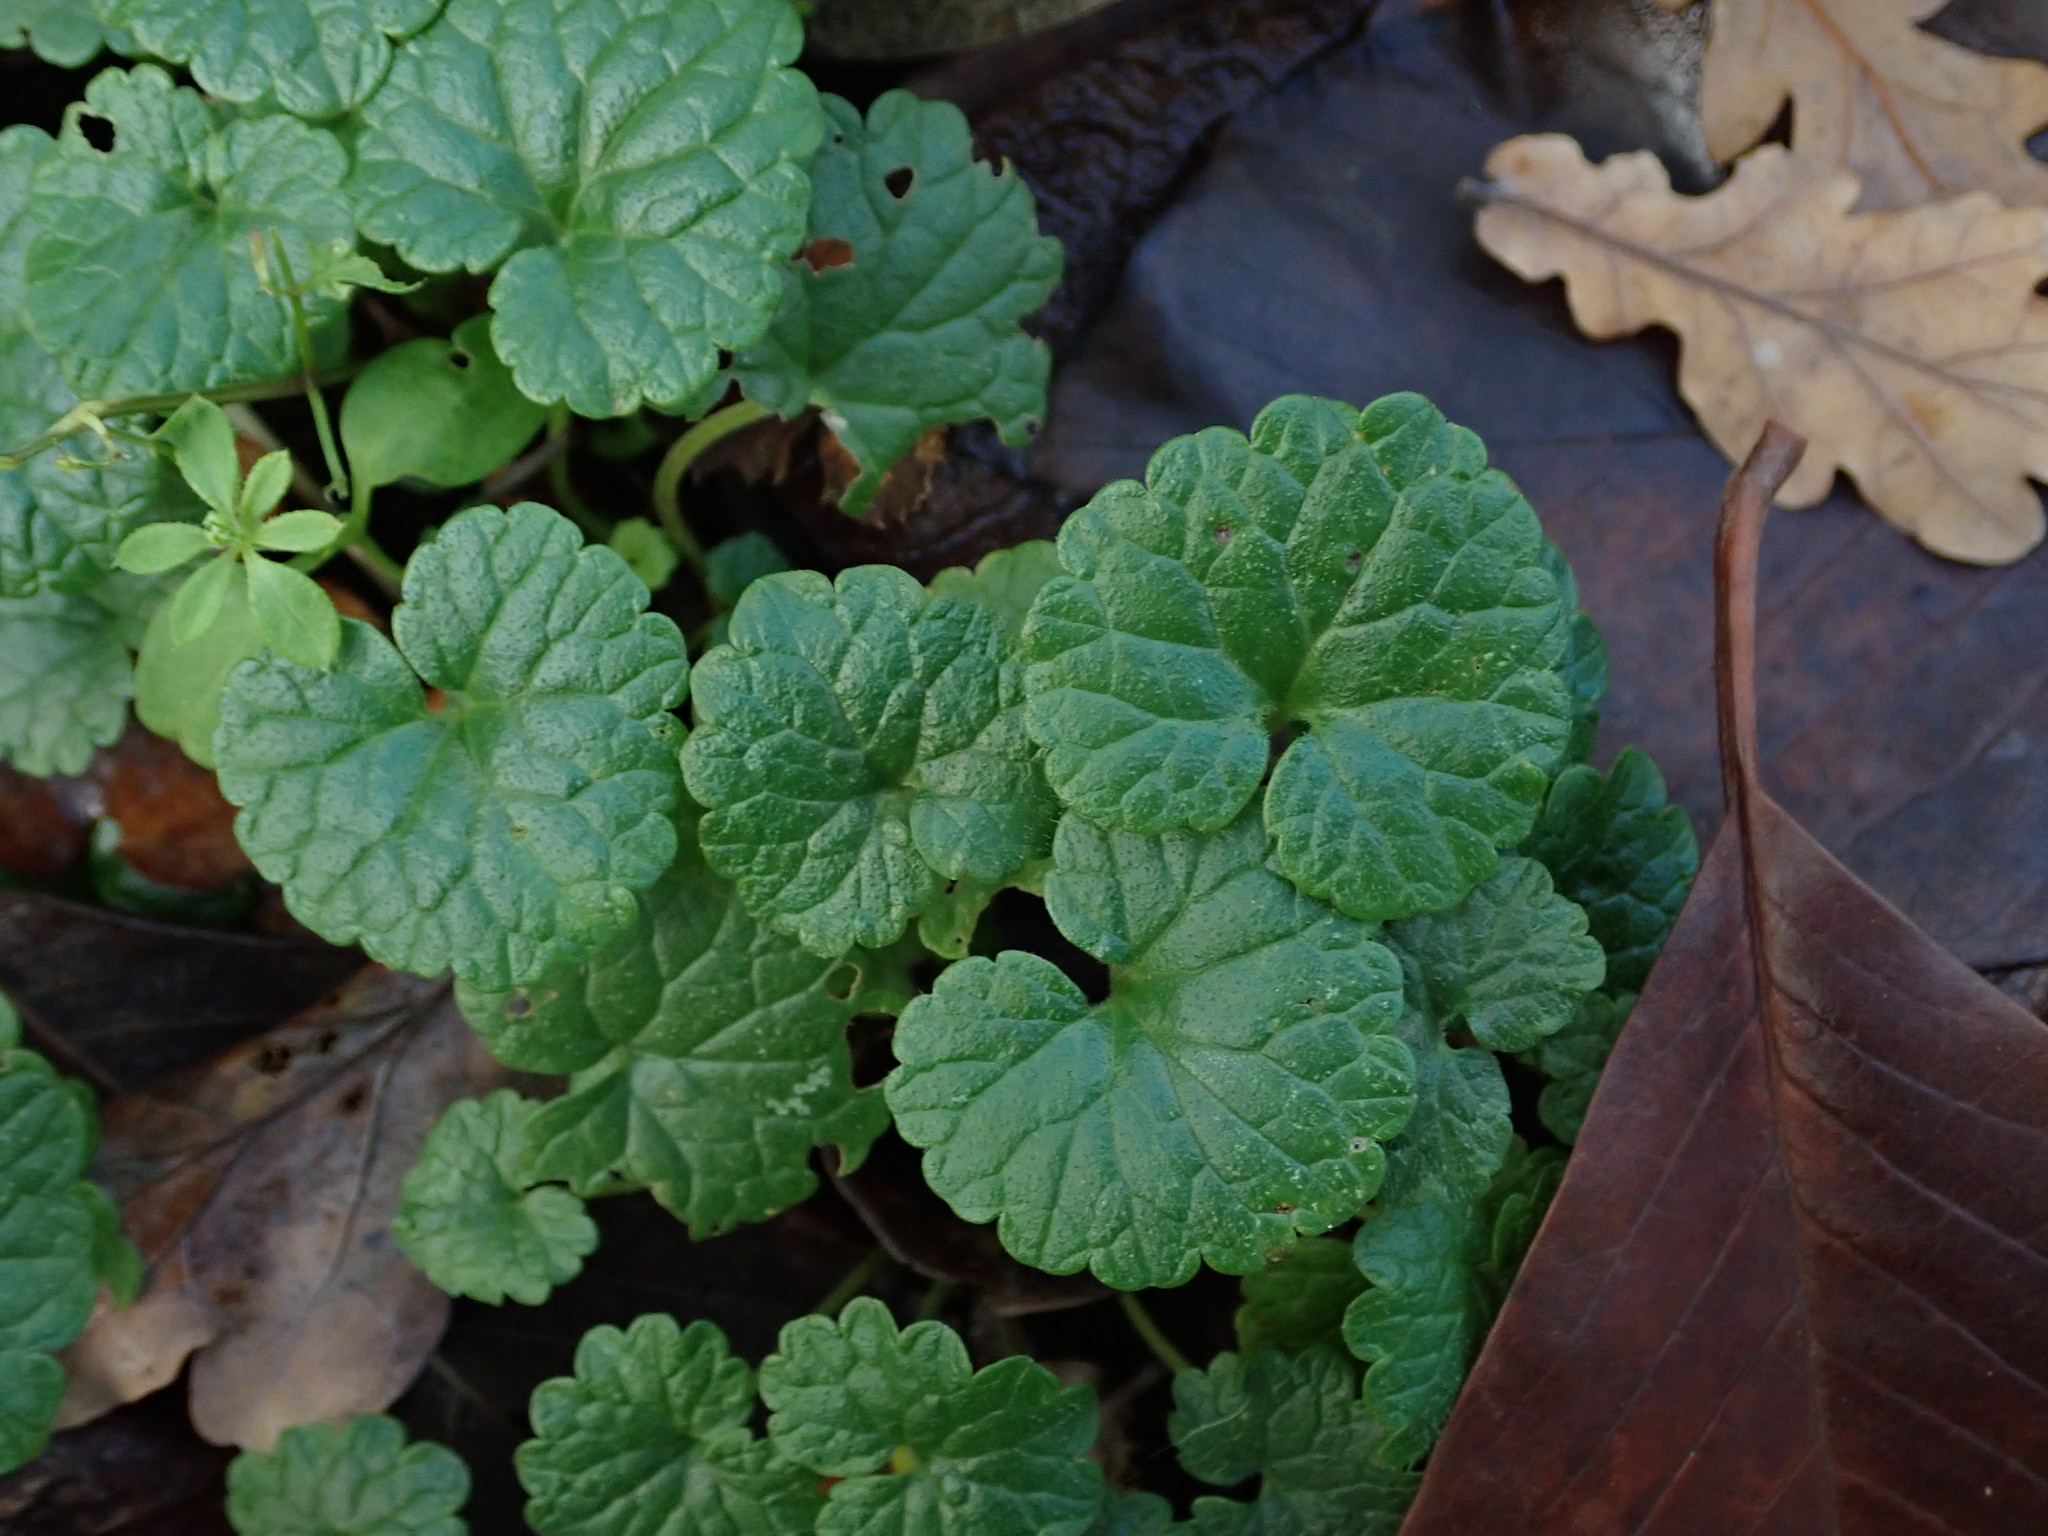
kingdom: Plantae
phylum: Tracheophyta
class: Magnoliopsida
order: Lamiales
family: Lamiaceae
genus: Glechoma
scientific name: Glechoma hederacea
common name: Ground ivy
